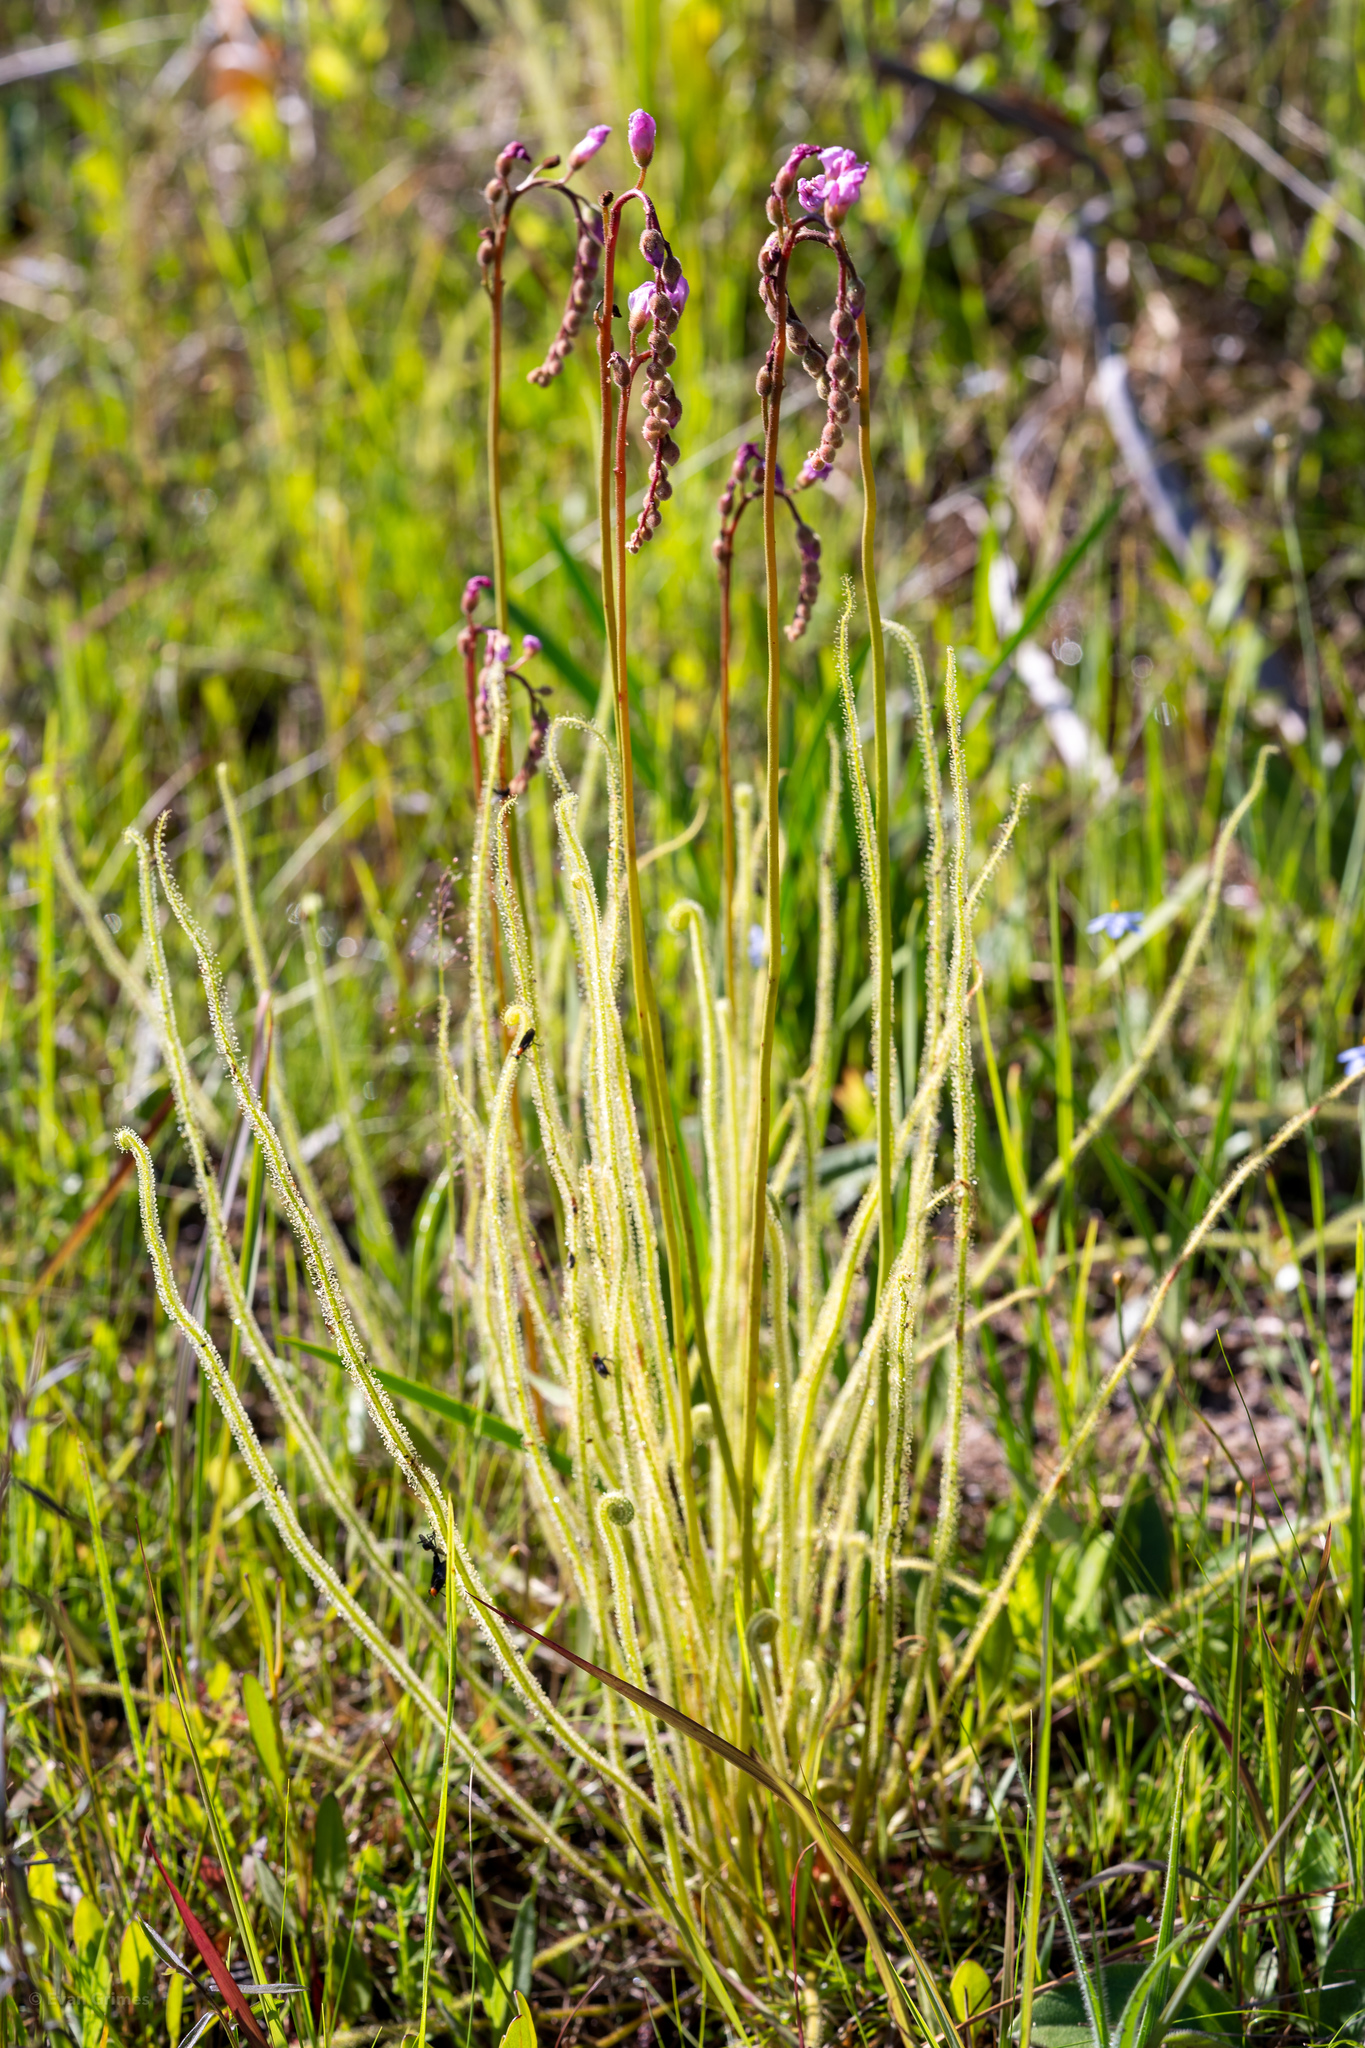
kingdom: Plantae
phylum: Tracheophyta
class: Magnoliopsida
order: Caryophyllales
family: Droseraceae
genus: Drosera
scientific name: Drosera filiformis
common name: Dew-thread
